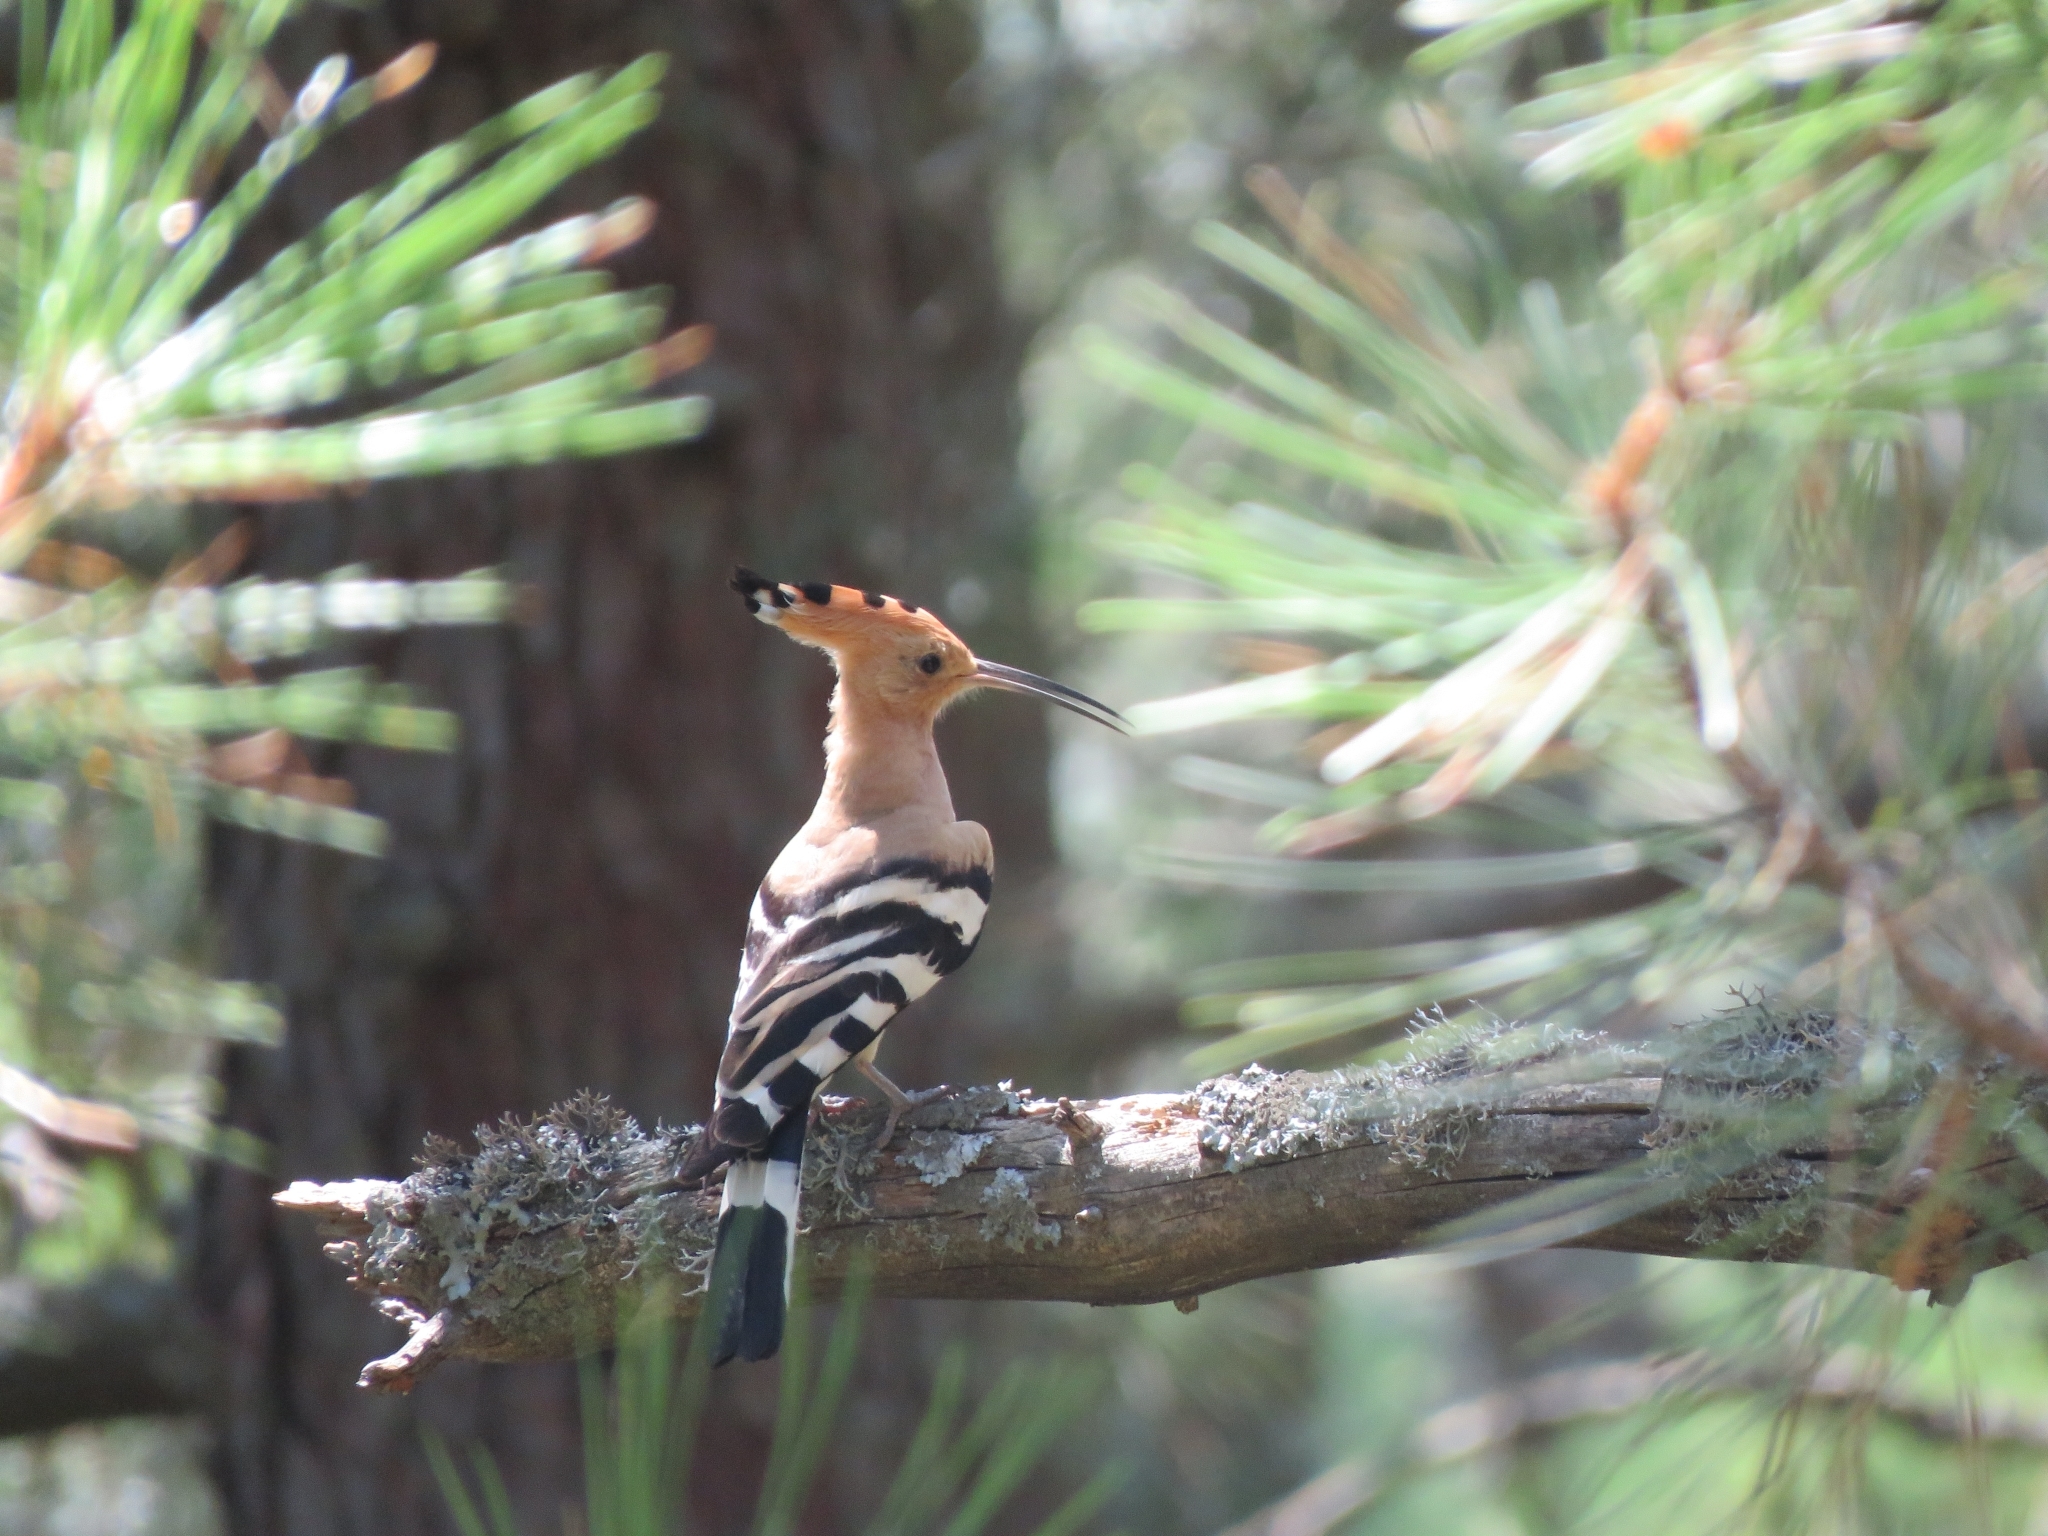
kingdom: Animalia
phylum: Chordata
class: Aves
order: Bucerotiformes
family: Upupidae
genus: Upupa
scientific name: Upupa epops
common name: Eurasian hoopoe
